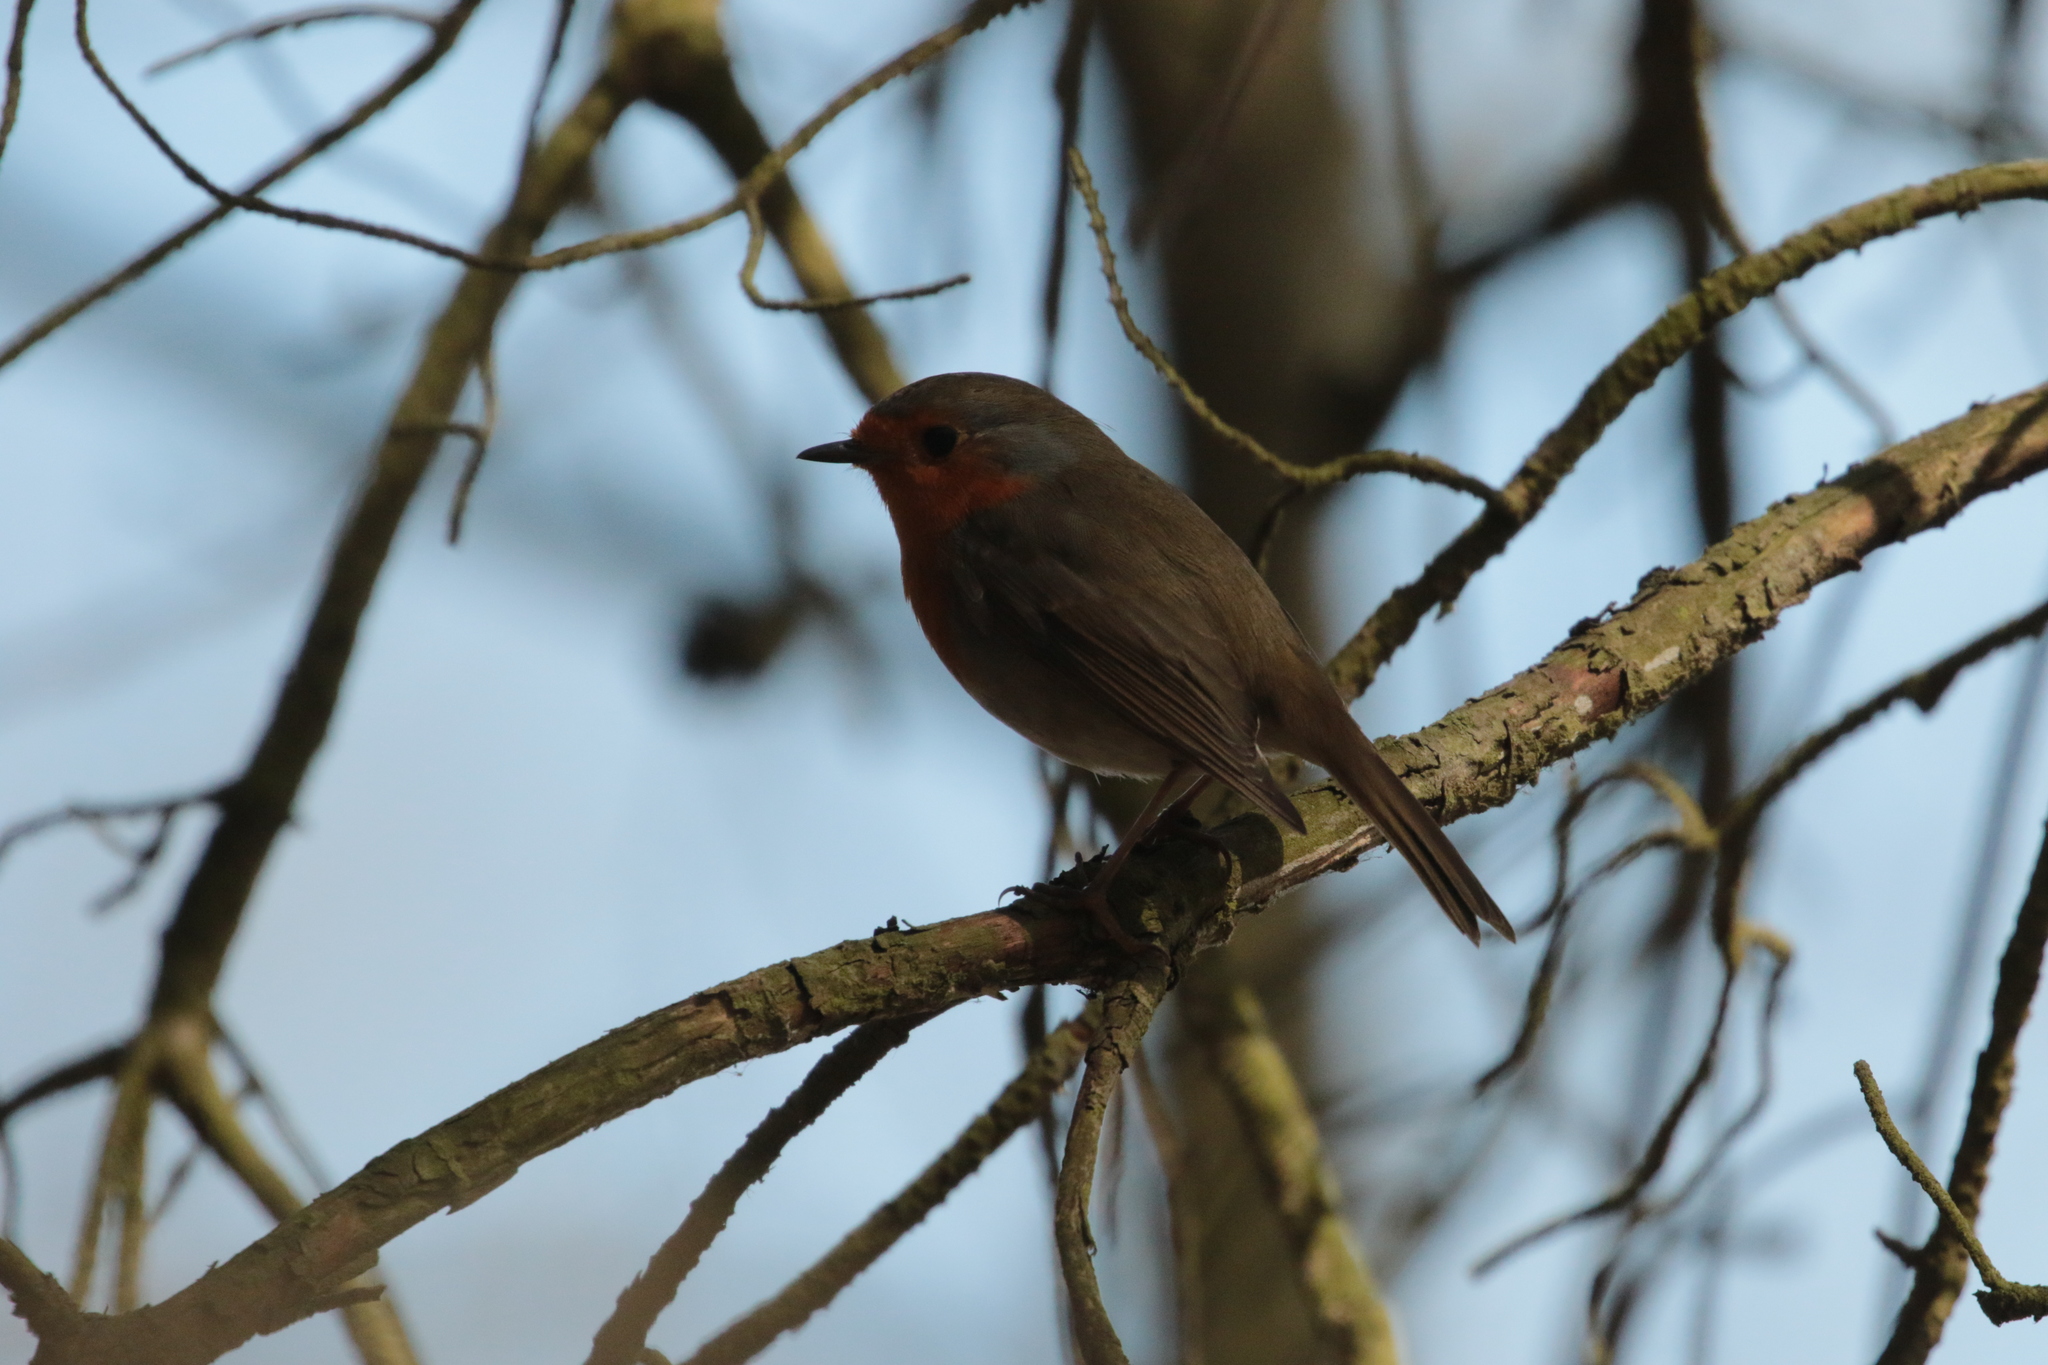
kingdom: Animalia
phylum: Chordata
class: Aves
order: Passeriformes
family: Muscicapidae
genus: Erithacus
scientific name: Erithacus rubecula
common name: European robin
